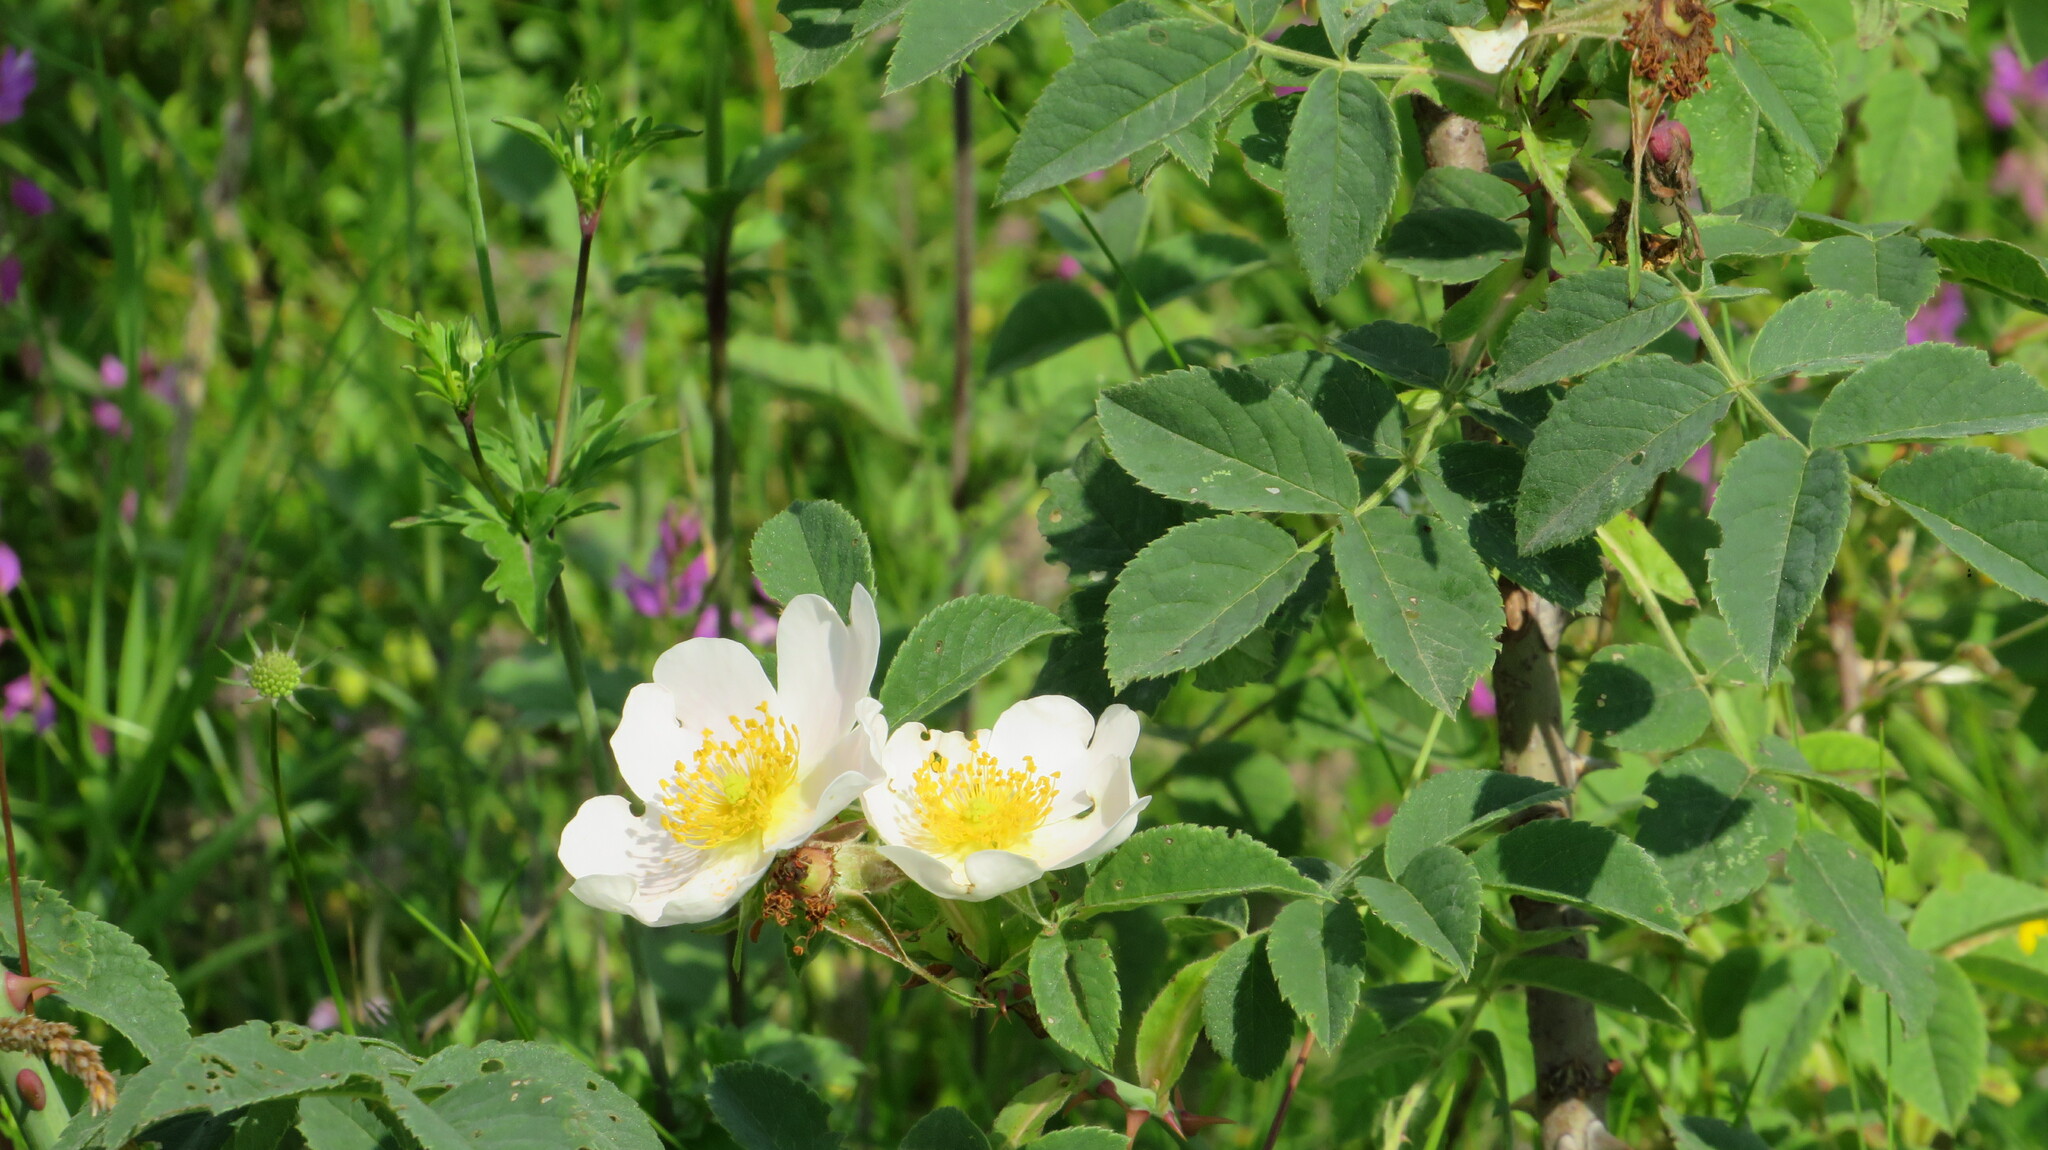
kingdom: Plantae
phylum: Tracheophyta
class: Magnoliopsida
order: Rosales
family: Rosaceae
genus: Rosa
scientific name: Rosa spinosissima
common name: Burnet rose
